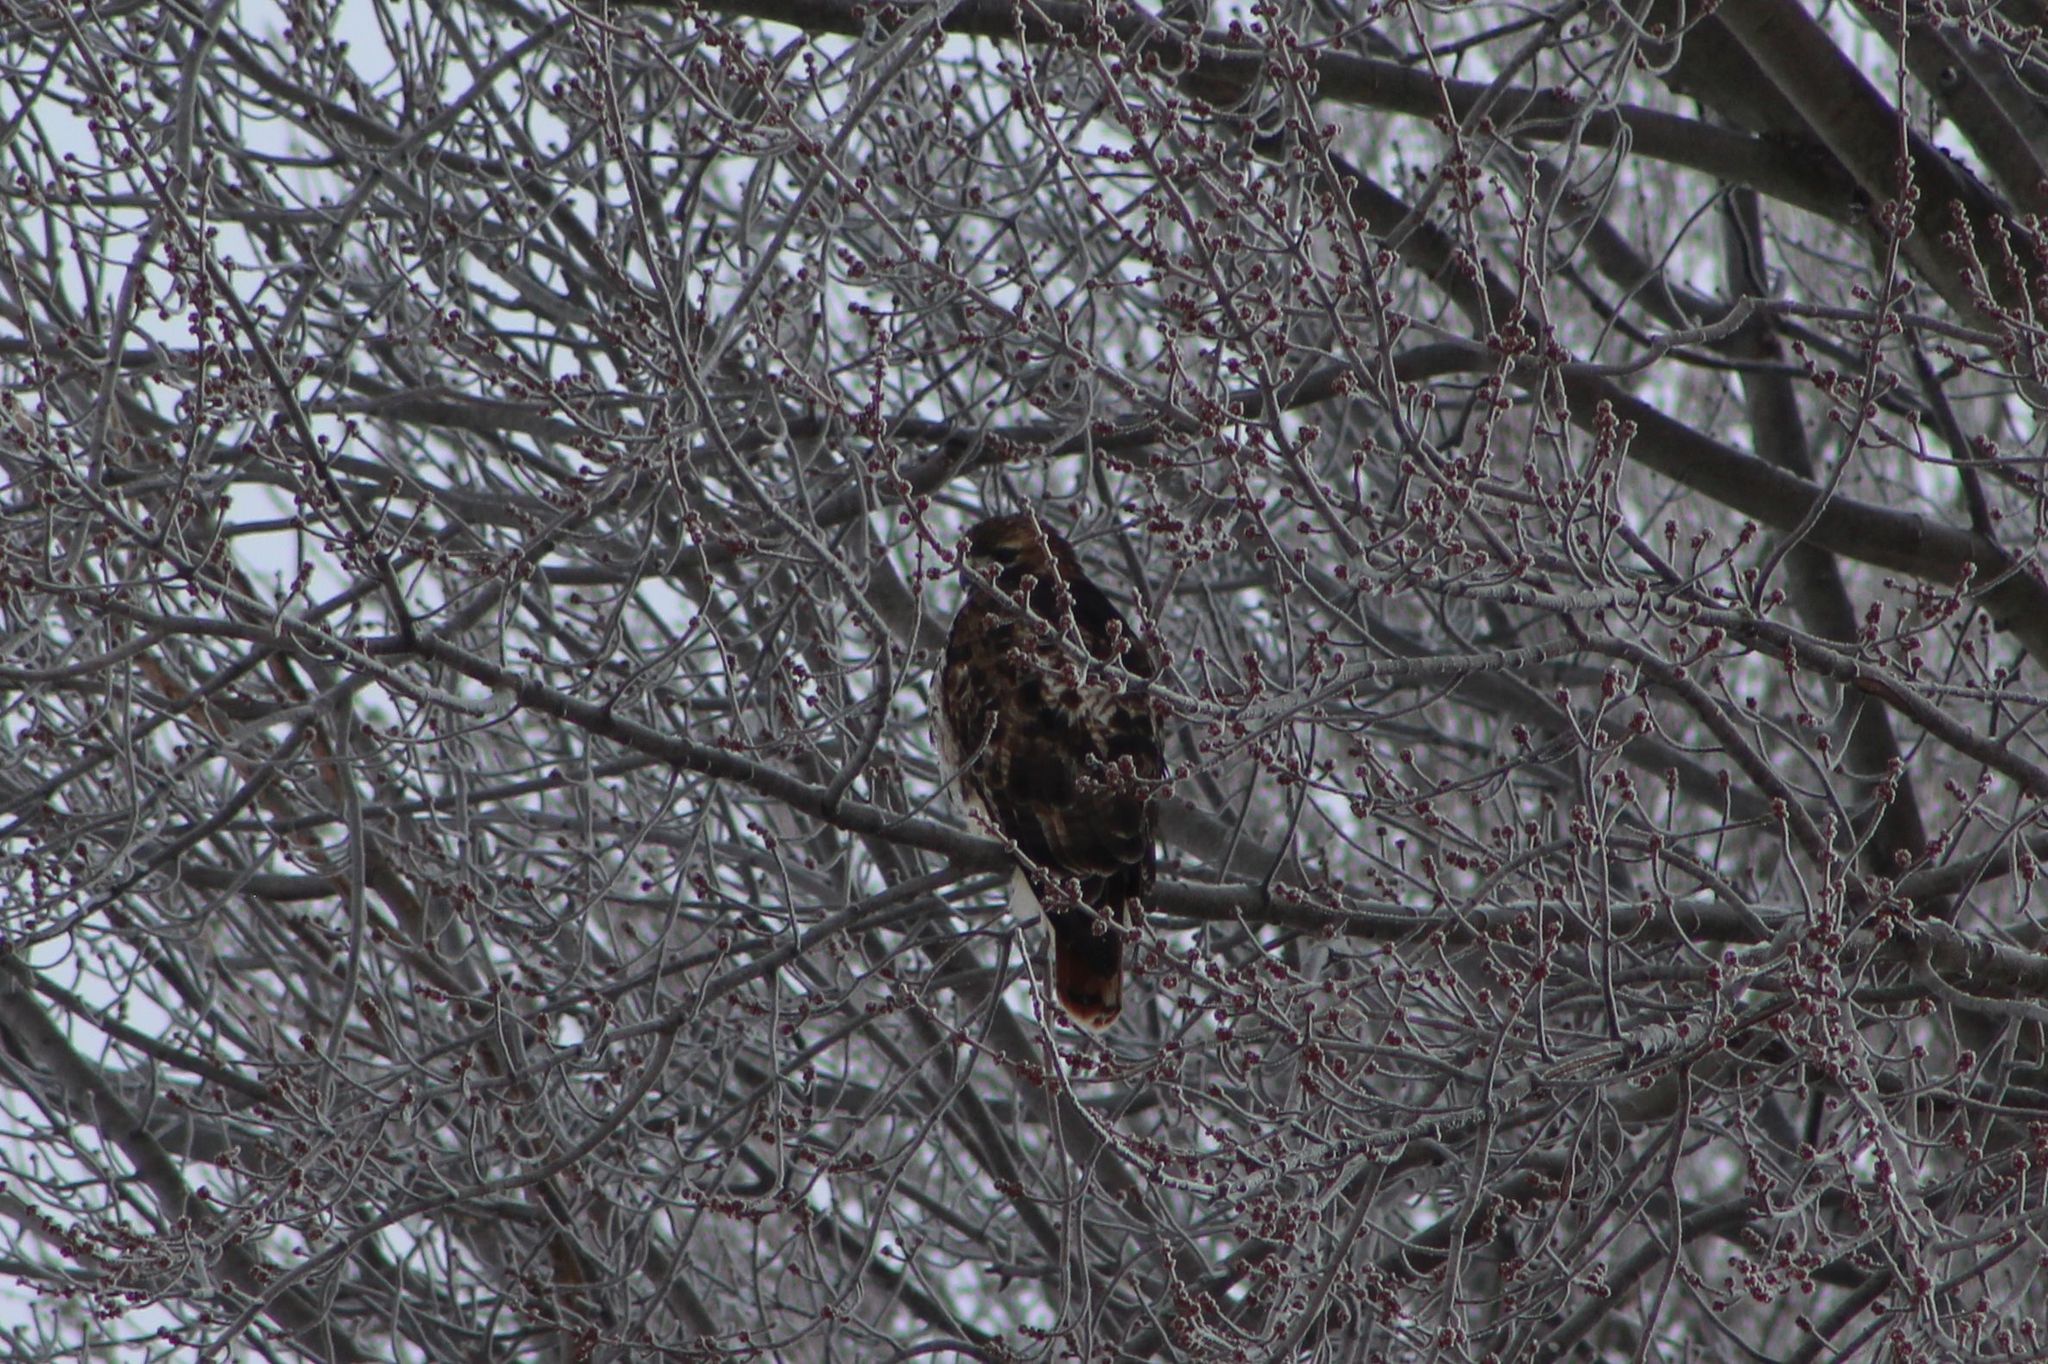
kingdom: Animalia
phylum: Chordata
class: Aves
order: Accipitriformes
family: Accipitridae
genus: Buteo
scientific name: Buteo jamaicensis
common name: Red-tailed hawk
